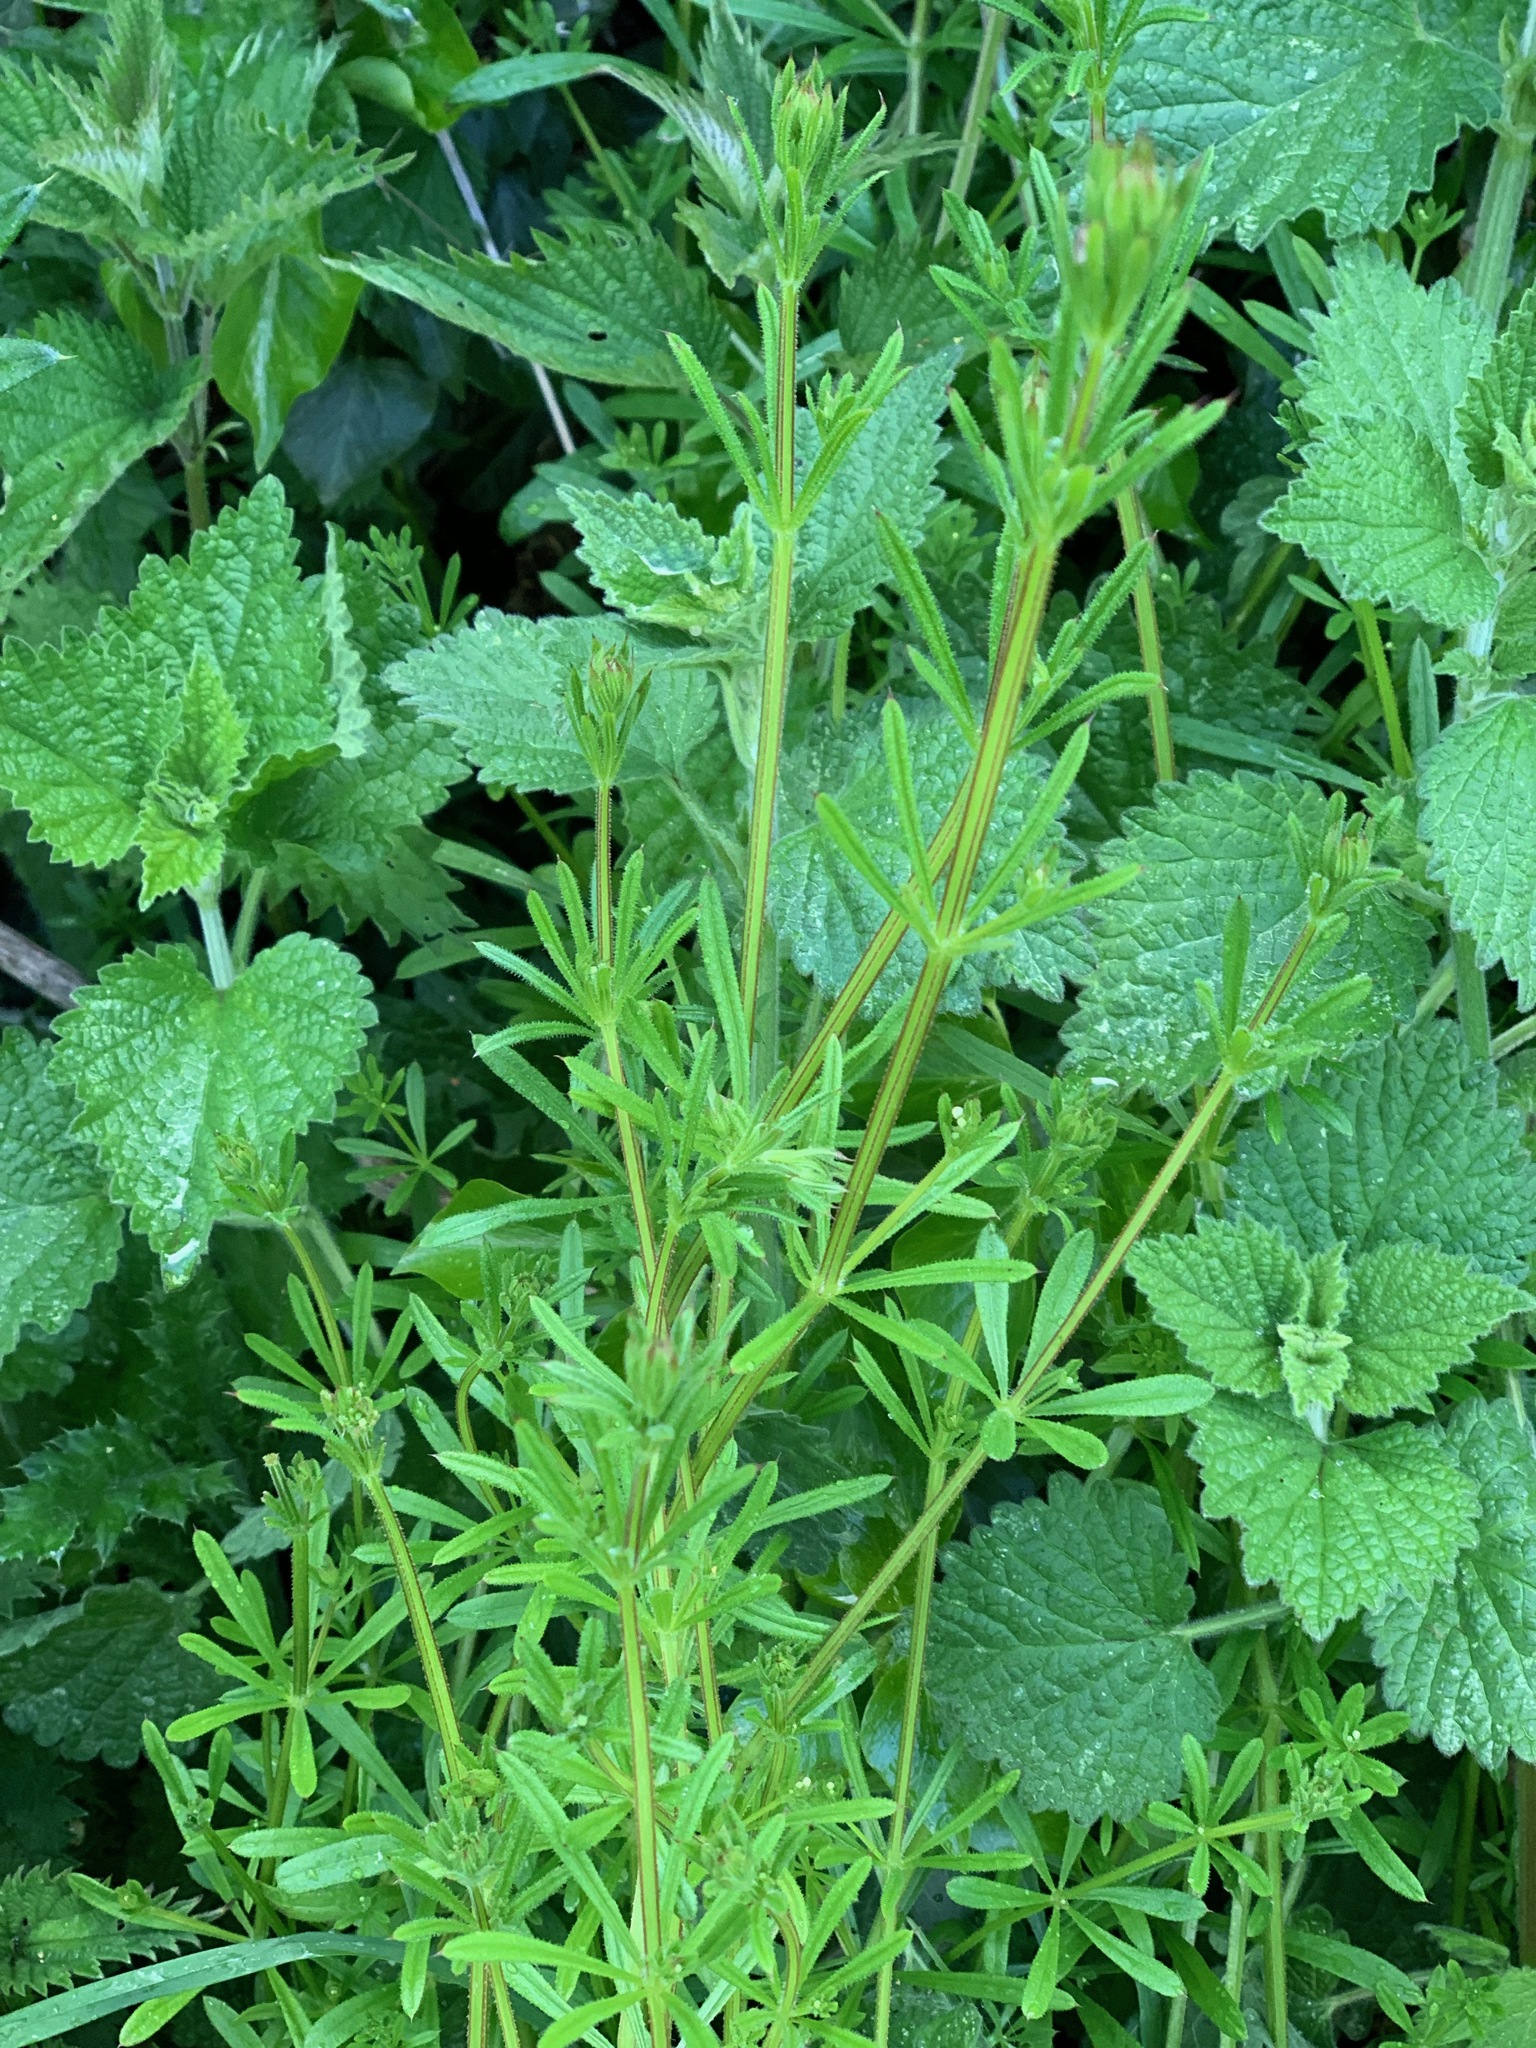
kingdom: Plantae
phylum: Tracheophyta
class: Magnoliopsida
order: Gentianales
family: Rubiaceae
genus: Galium
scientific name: Galium aparine
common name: Cleavers
